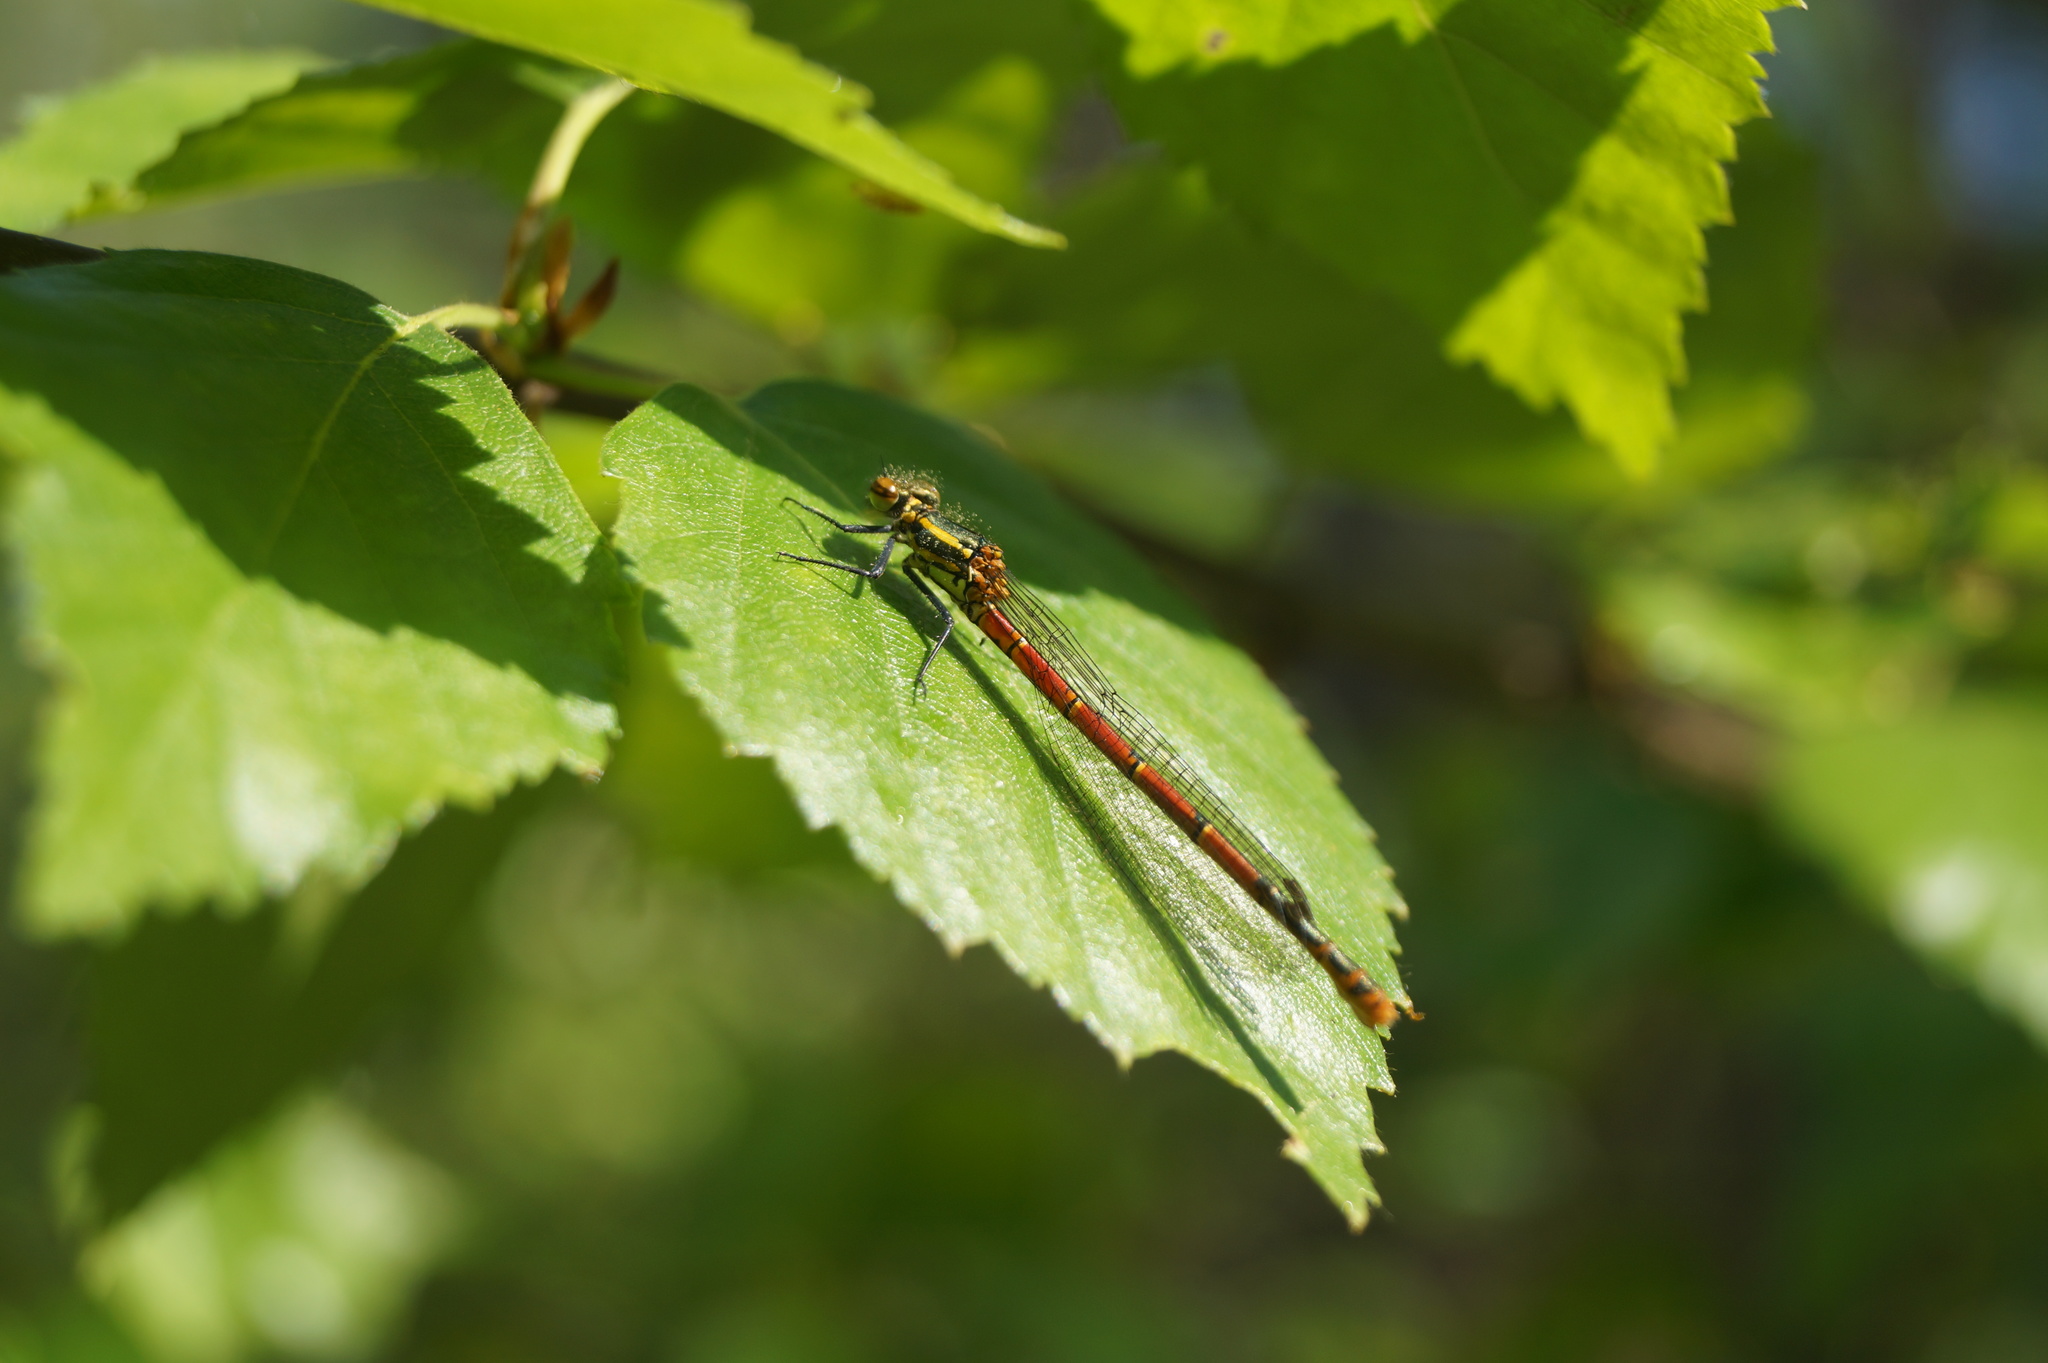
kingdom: Animalia
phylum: Arthropoda
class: Insecta
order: Odonata
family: Coenagrionidae
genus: Pyrrhosoma
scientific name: Pyrrhosoma nymphula
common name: Large red damsel
